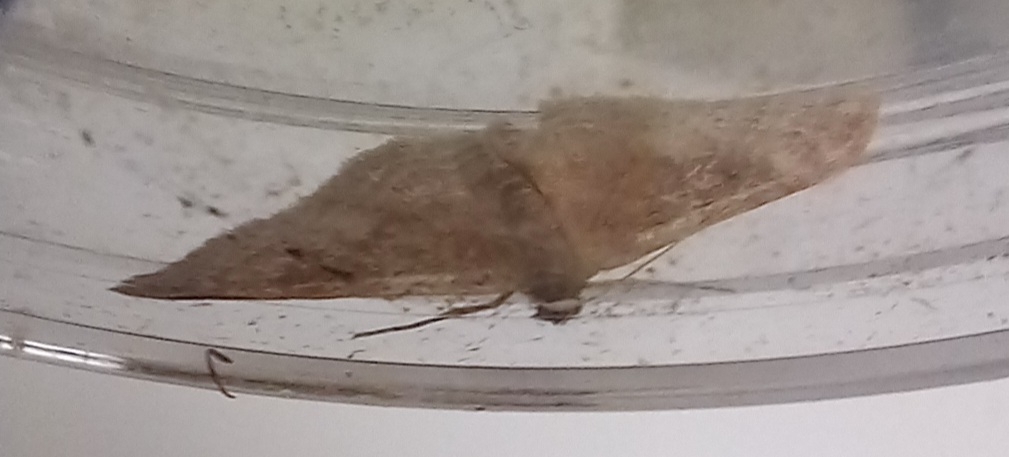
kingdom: Animalia
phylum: Arthropoda
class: Insecta
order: Lepidoptera
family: Geometridae
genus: Idaea
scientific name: Idaea degeneraria
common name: Portland ribbon wave
